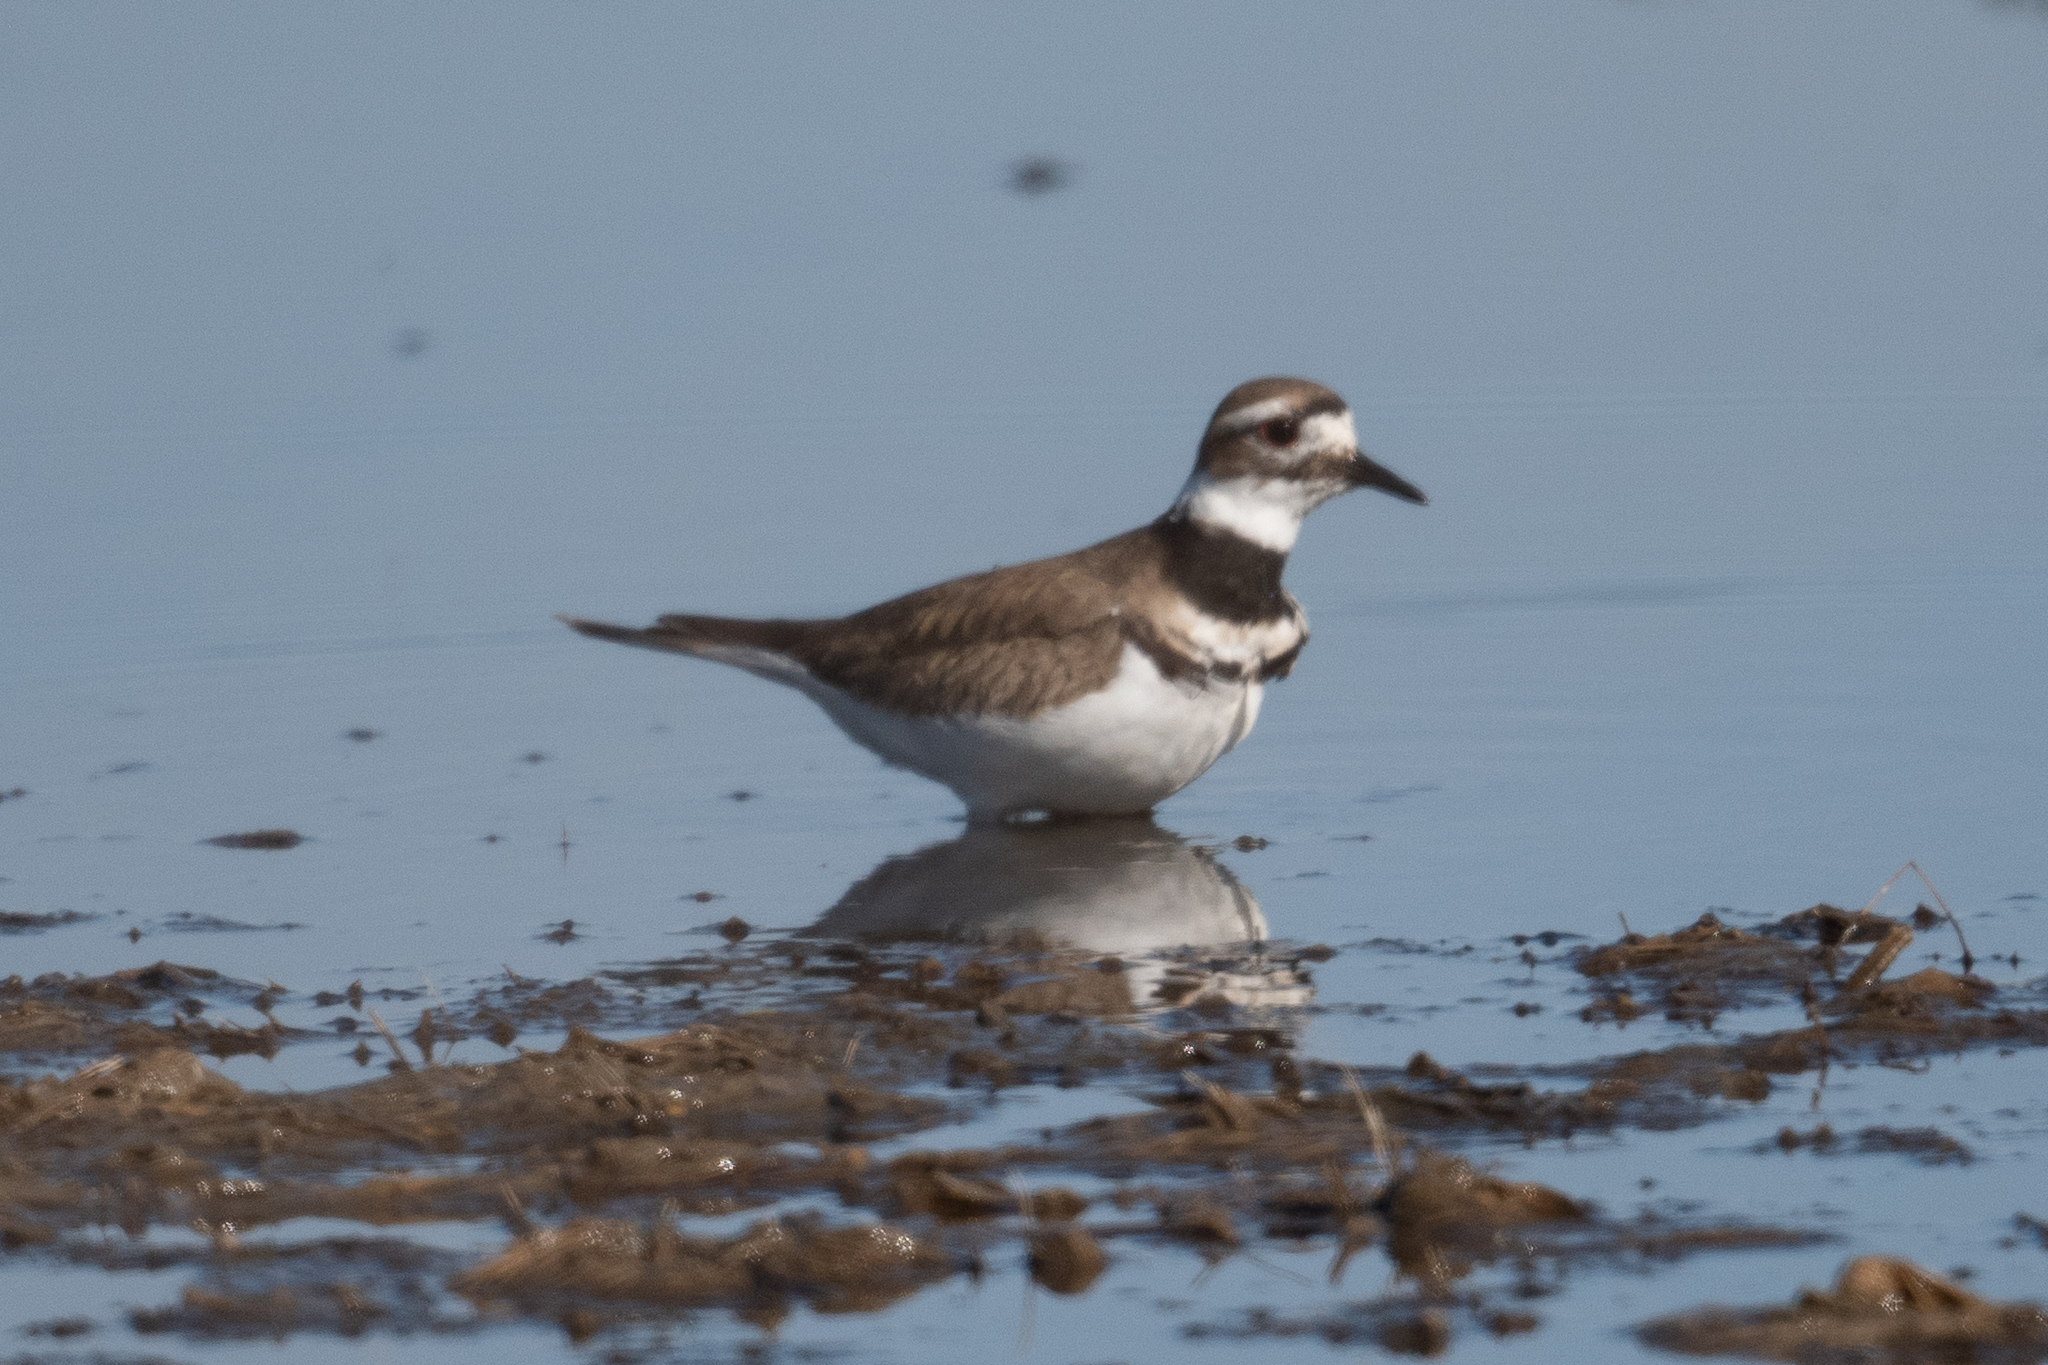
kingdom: Animalia
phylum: Chordata
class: Aves
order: Charadriiformes
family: Charadriidae
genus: Charadrius
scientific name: Charadrius vociferus
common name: Killdeer
